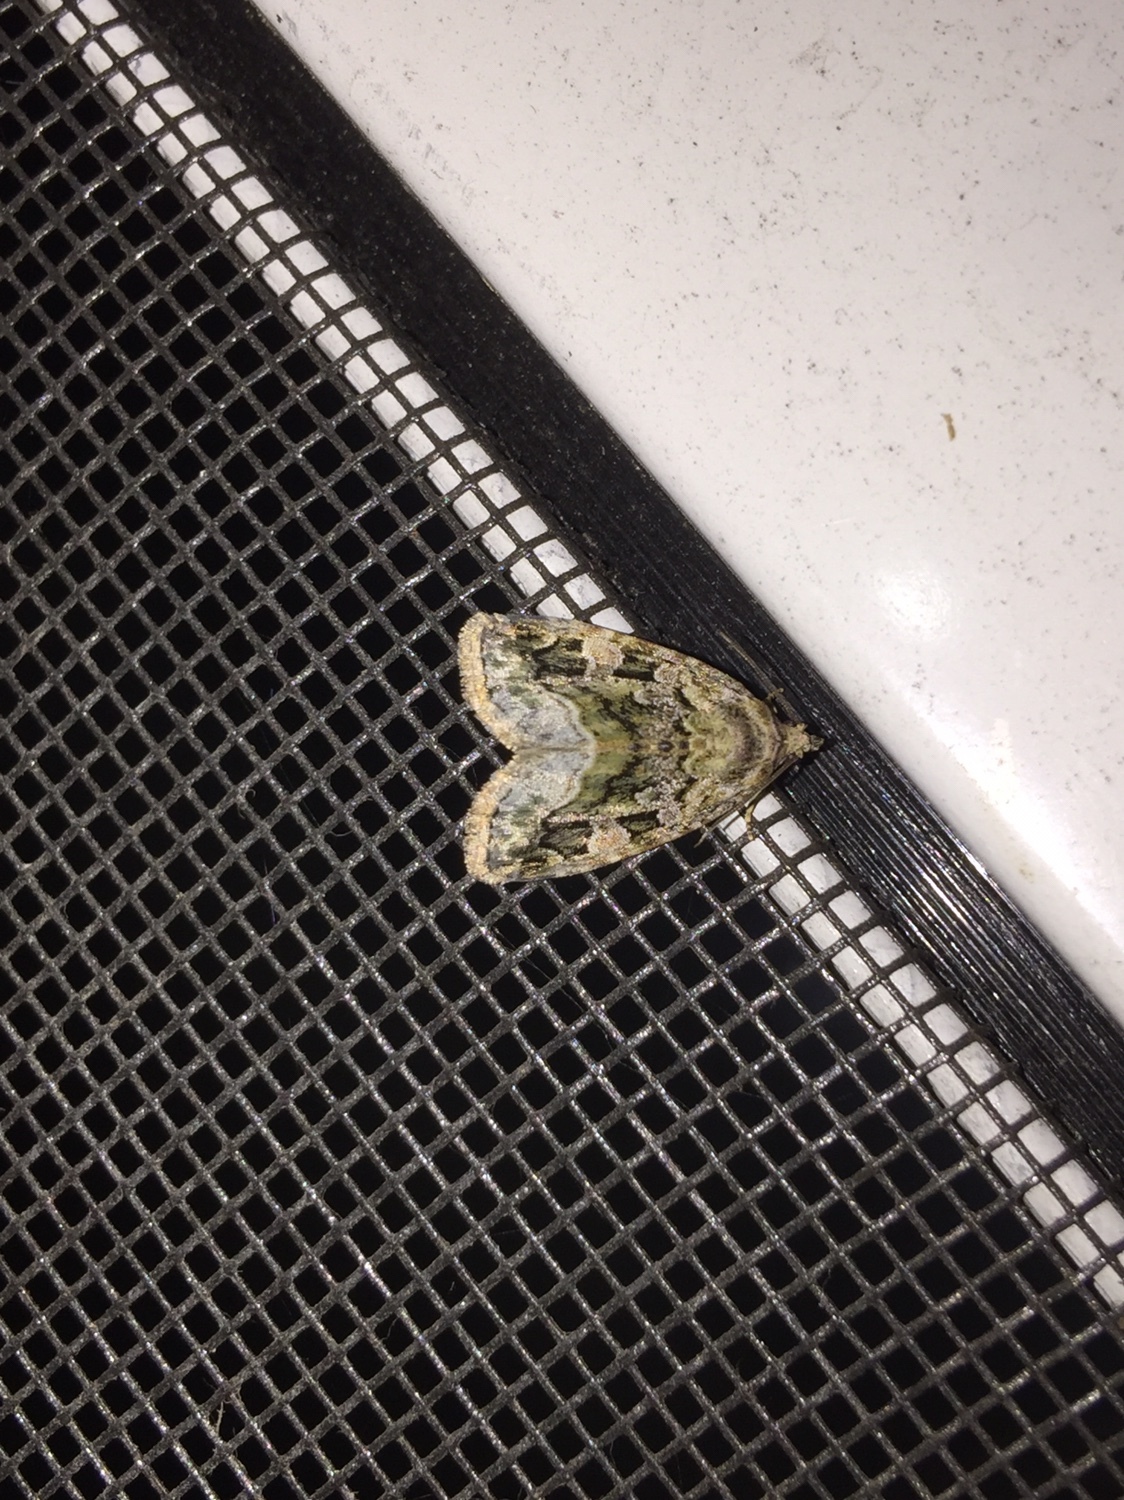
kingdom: Animalia
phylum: Arthropoda
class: Insecta
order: Lepidoptera
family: Noctuidae
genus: Protodeltote
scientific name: Protodeltote muscosula
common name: Large mossy glyph
